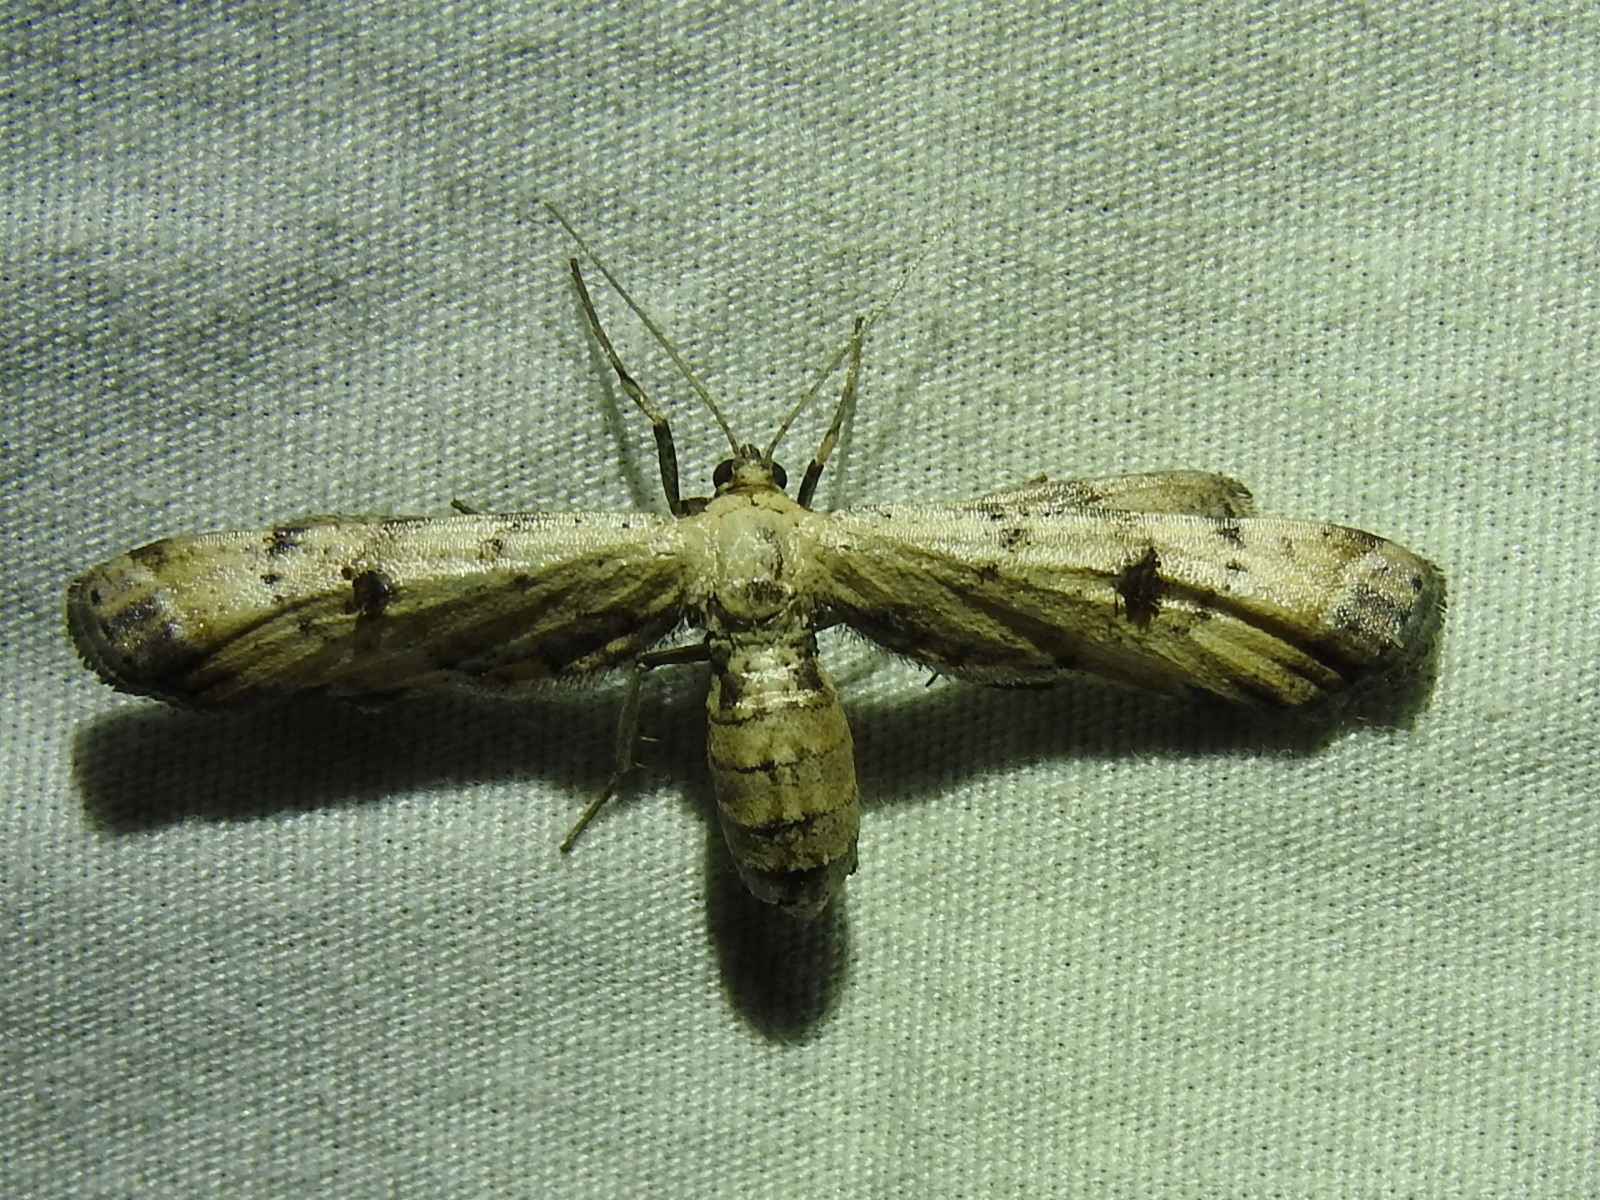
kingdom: Animalia
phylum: Arthropoda
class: Insecta
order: Lepidoptera
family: Geometridae
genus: Tornos
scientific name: Tornos scolopacinaria
